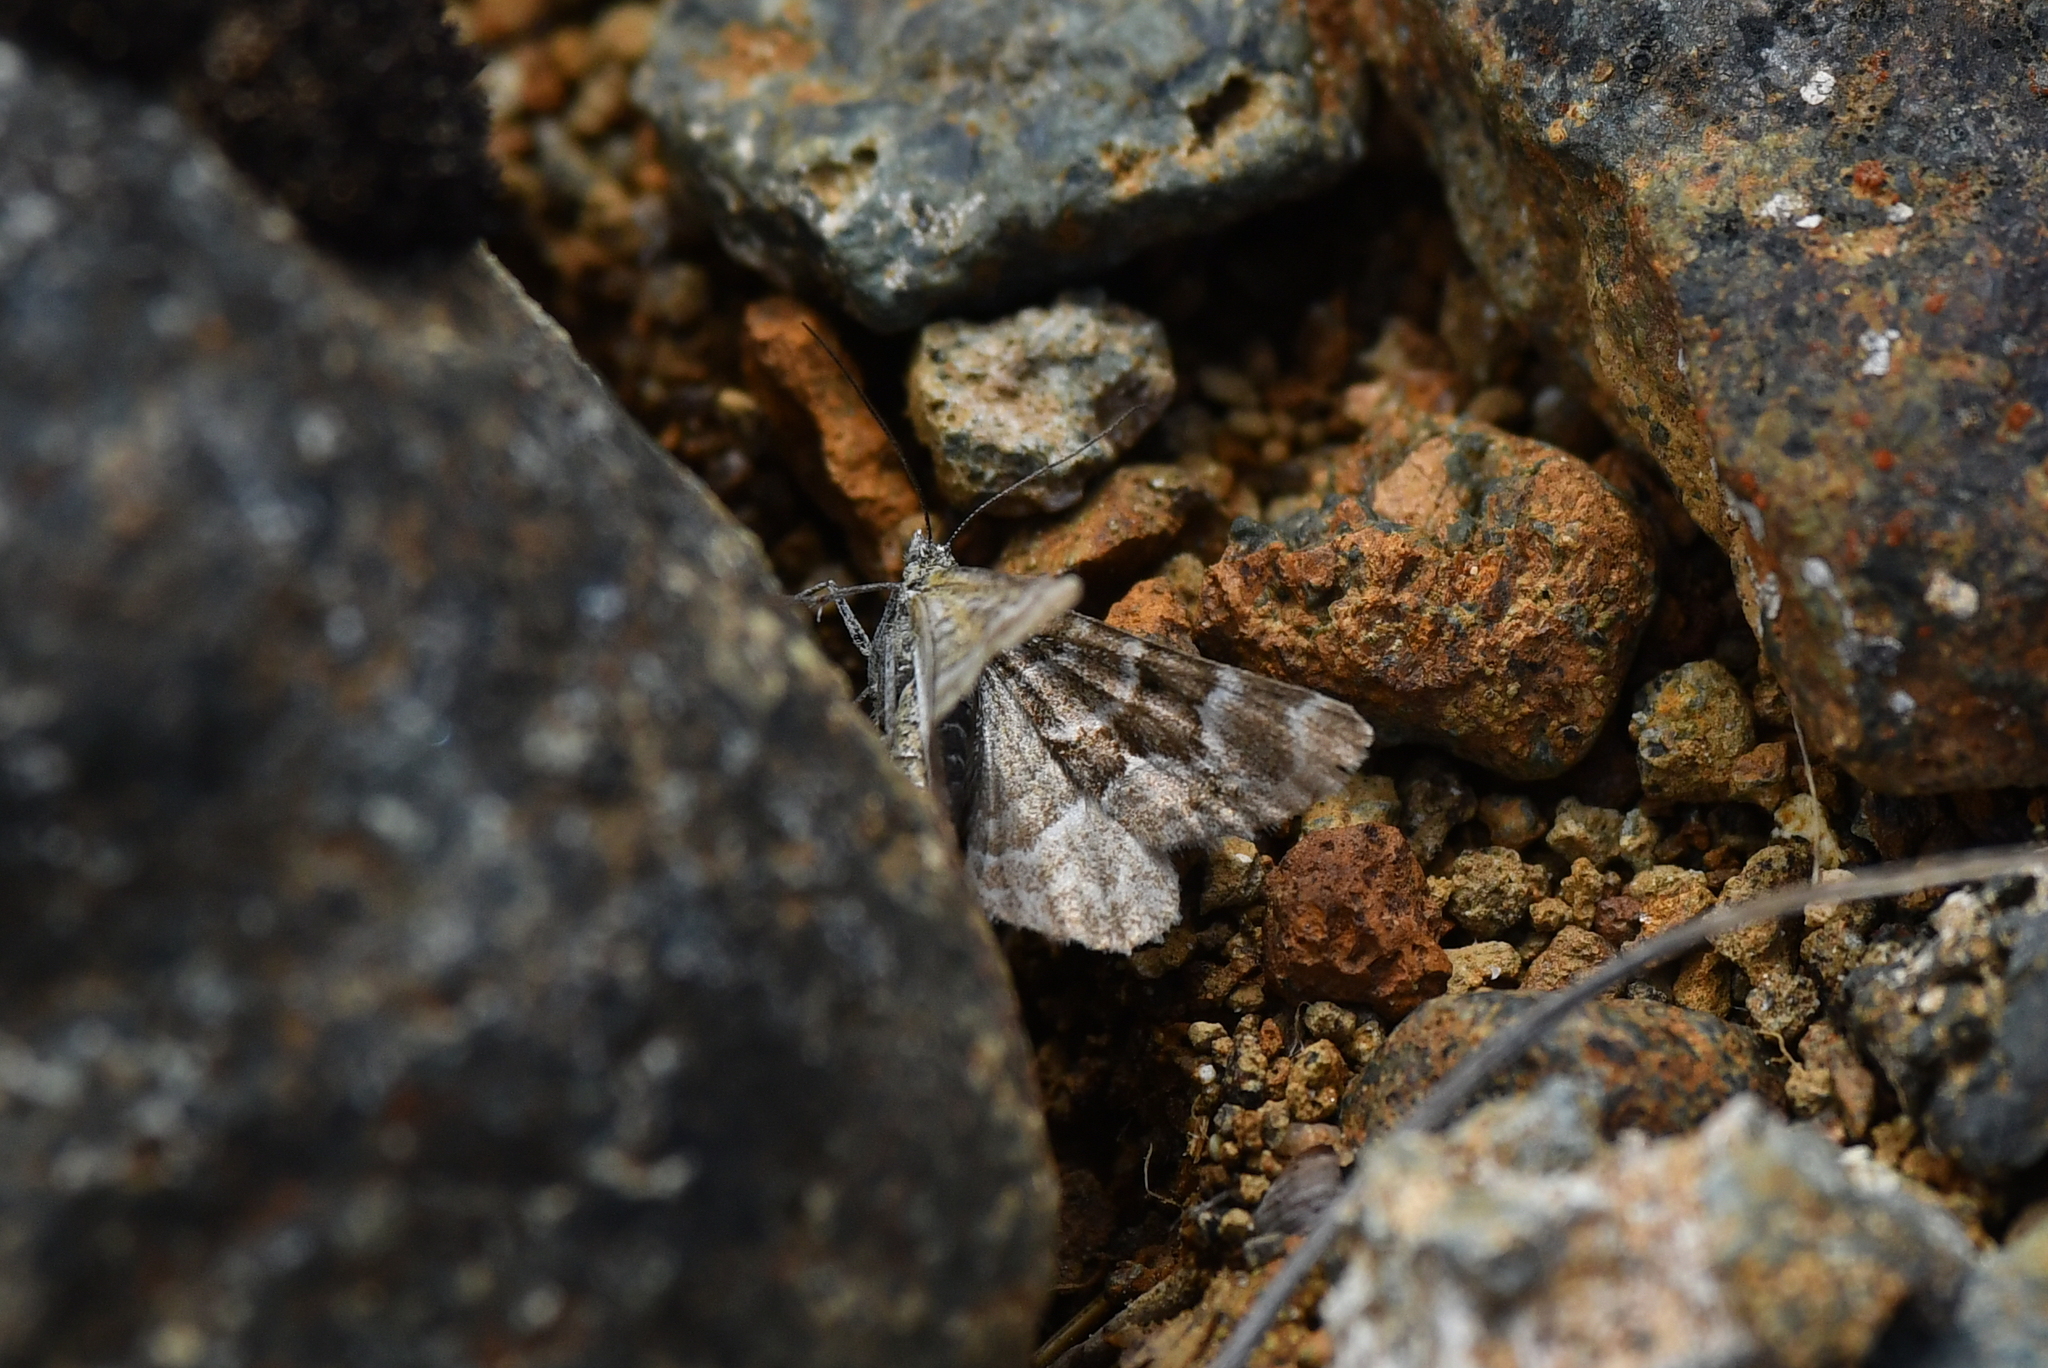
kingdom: Animalia
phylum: Arthropoda
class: Insecta
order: Lepidoptera
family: Geometridae
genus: Notoreas
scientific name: Notoreas paradelpha
